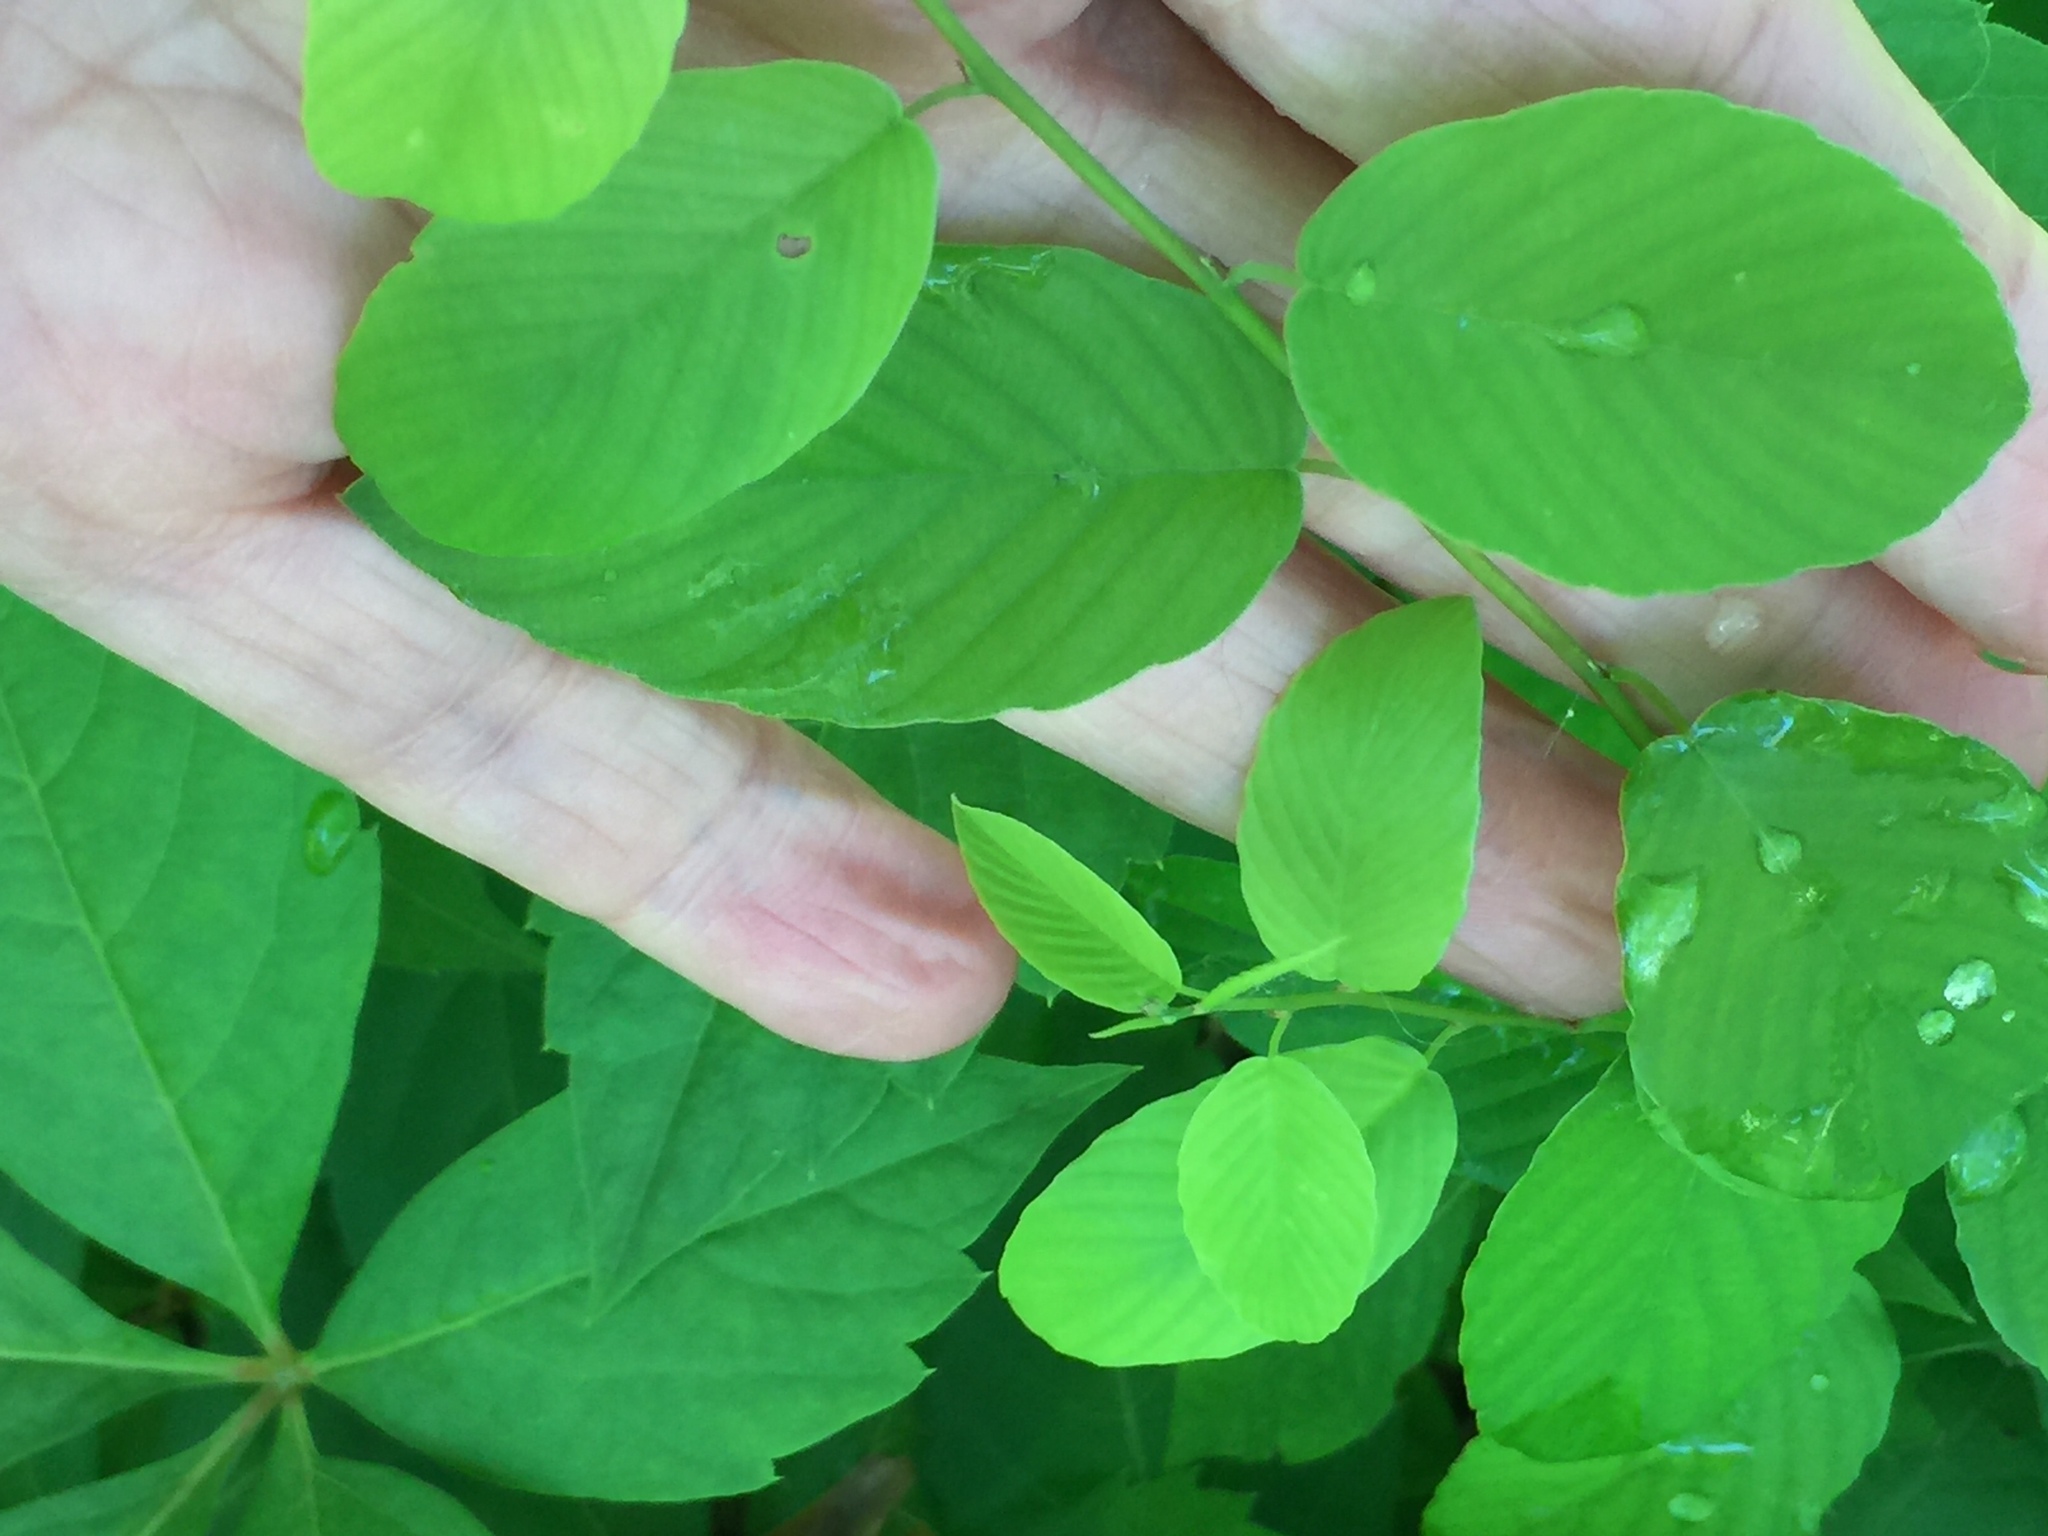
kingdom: Plantae
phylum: Tracheophyta
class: Magnoliopsida
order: Rosales
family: Rhamnaceae
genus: Berchemia
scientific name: Berchemia scandens
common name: Supplejack
